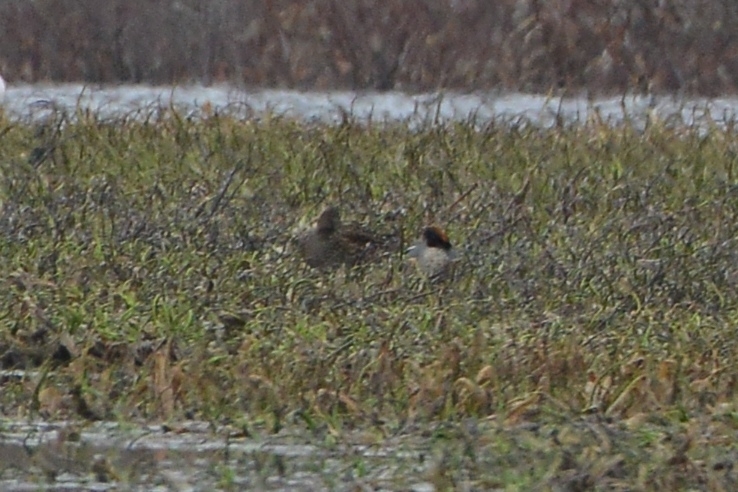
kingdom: Animalia
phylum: Chordata
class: Aves
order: Anseriformes
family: Anatidae
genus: Anas
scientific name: Anas crecca
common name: Eurasian teal
